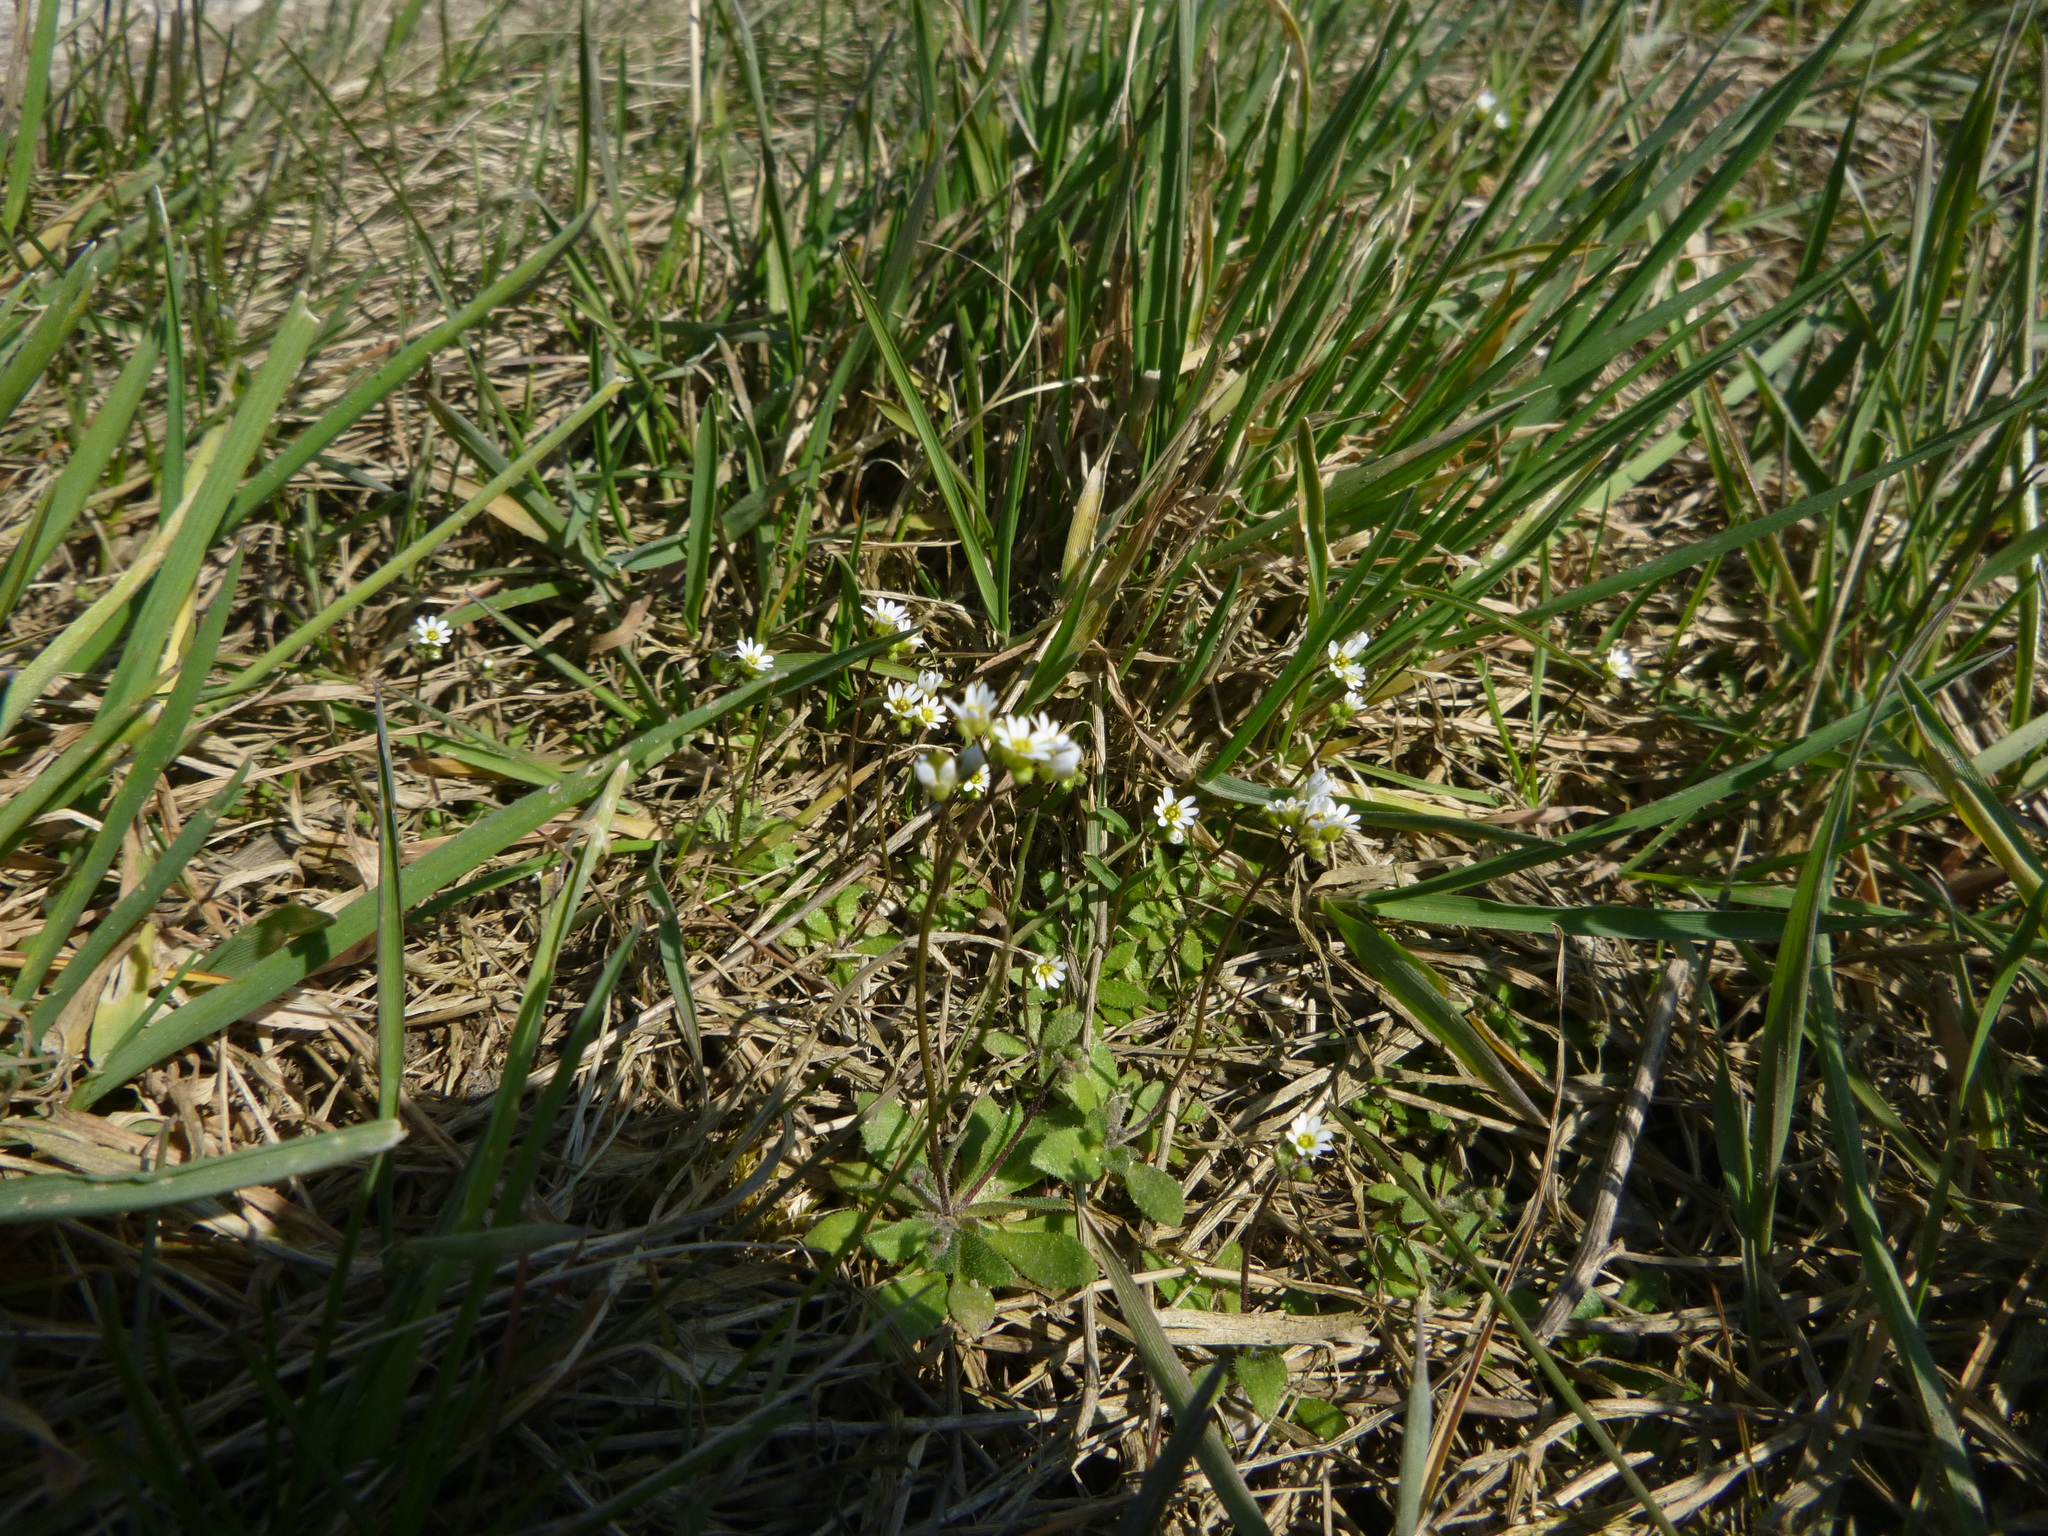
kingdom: Plantae
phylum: Tracheophyta
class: Magnoliopsida
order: Brassicales
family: Brassicaceae
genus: Draba
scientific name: Draba verna
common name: Spring draba
